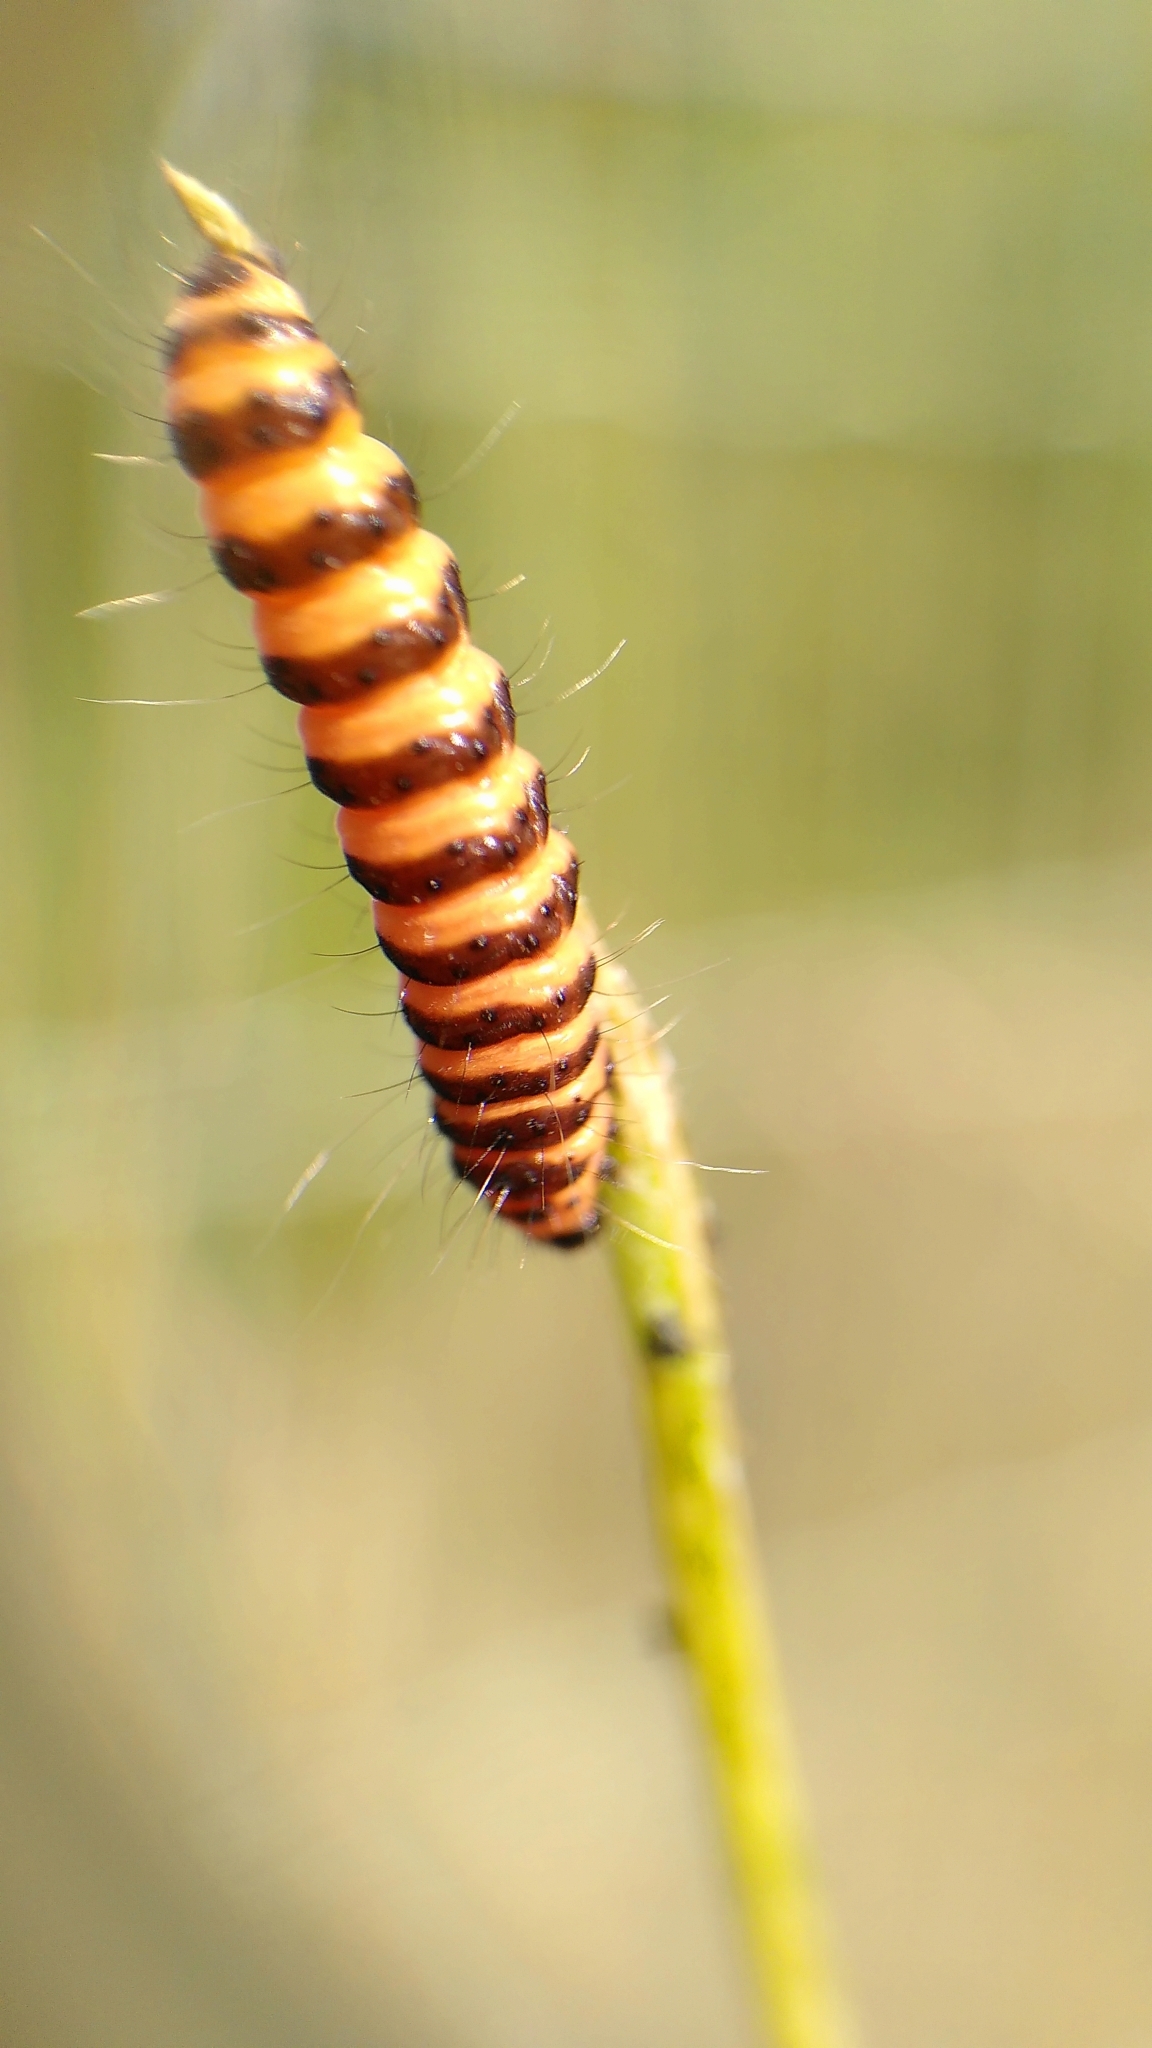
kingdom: Animalia
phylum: Arthropoda
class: Insecta
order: Lepidoptera
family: Erebidae
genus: Tyria
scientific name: Tyria jacobaeae
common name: Cinnabar
